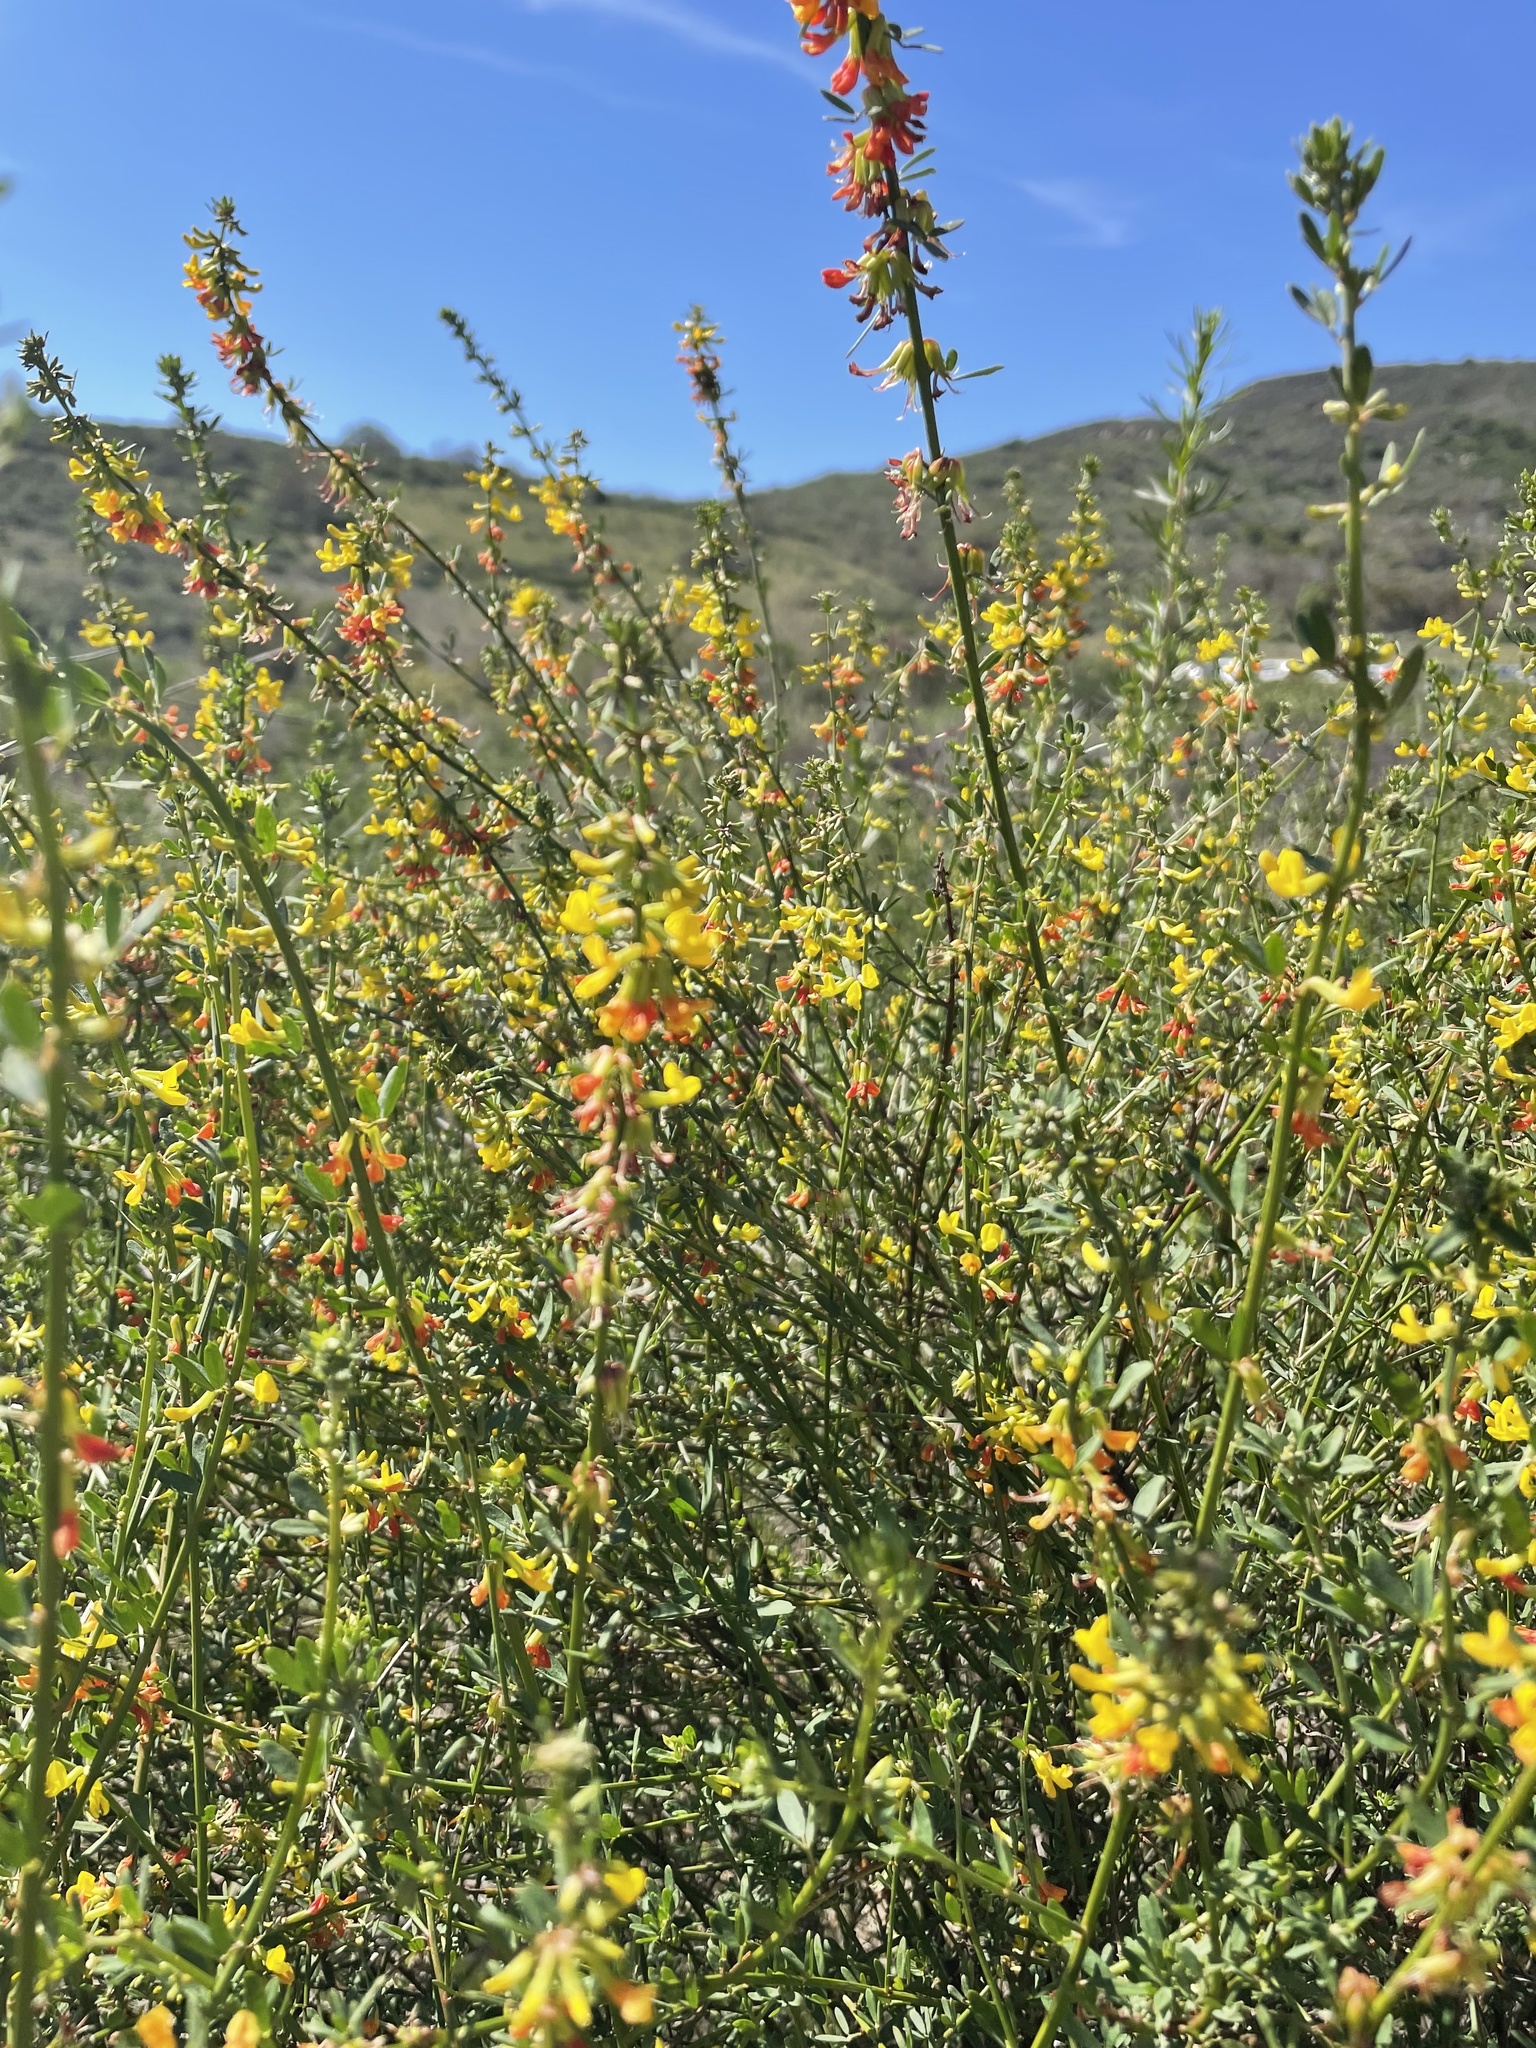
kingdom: Plantae
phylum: Tracheophyta
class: Magnoliopsida
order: Fabales
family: Fabaceae
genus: Acmispon
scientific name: Acmispon glaber
